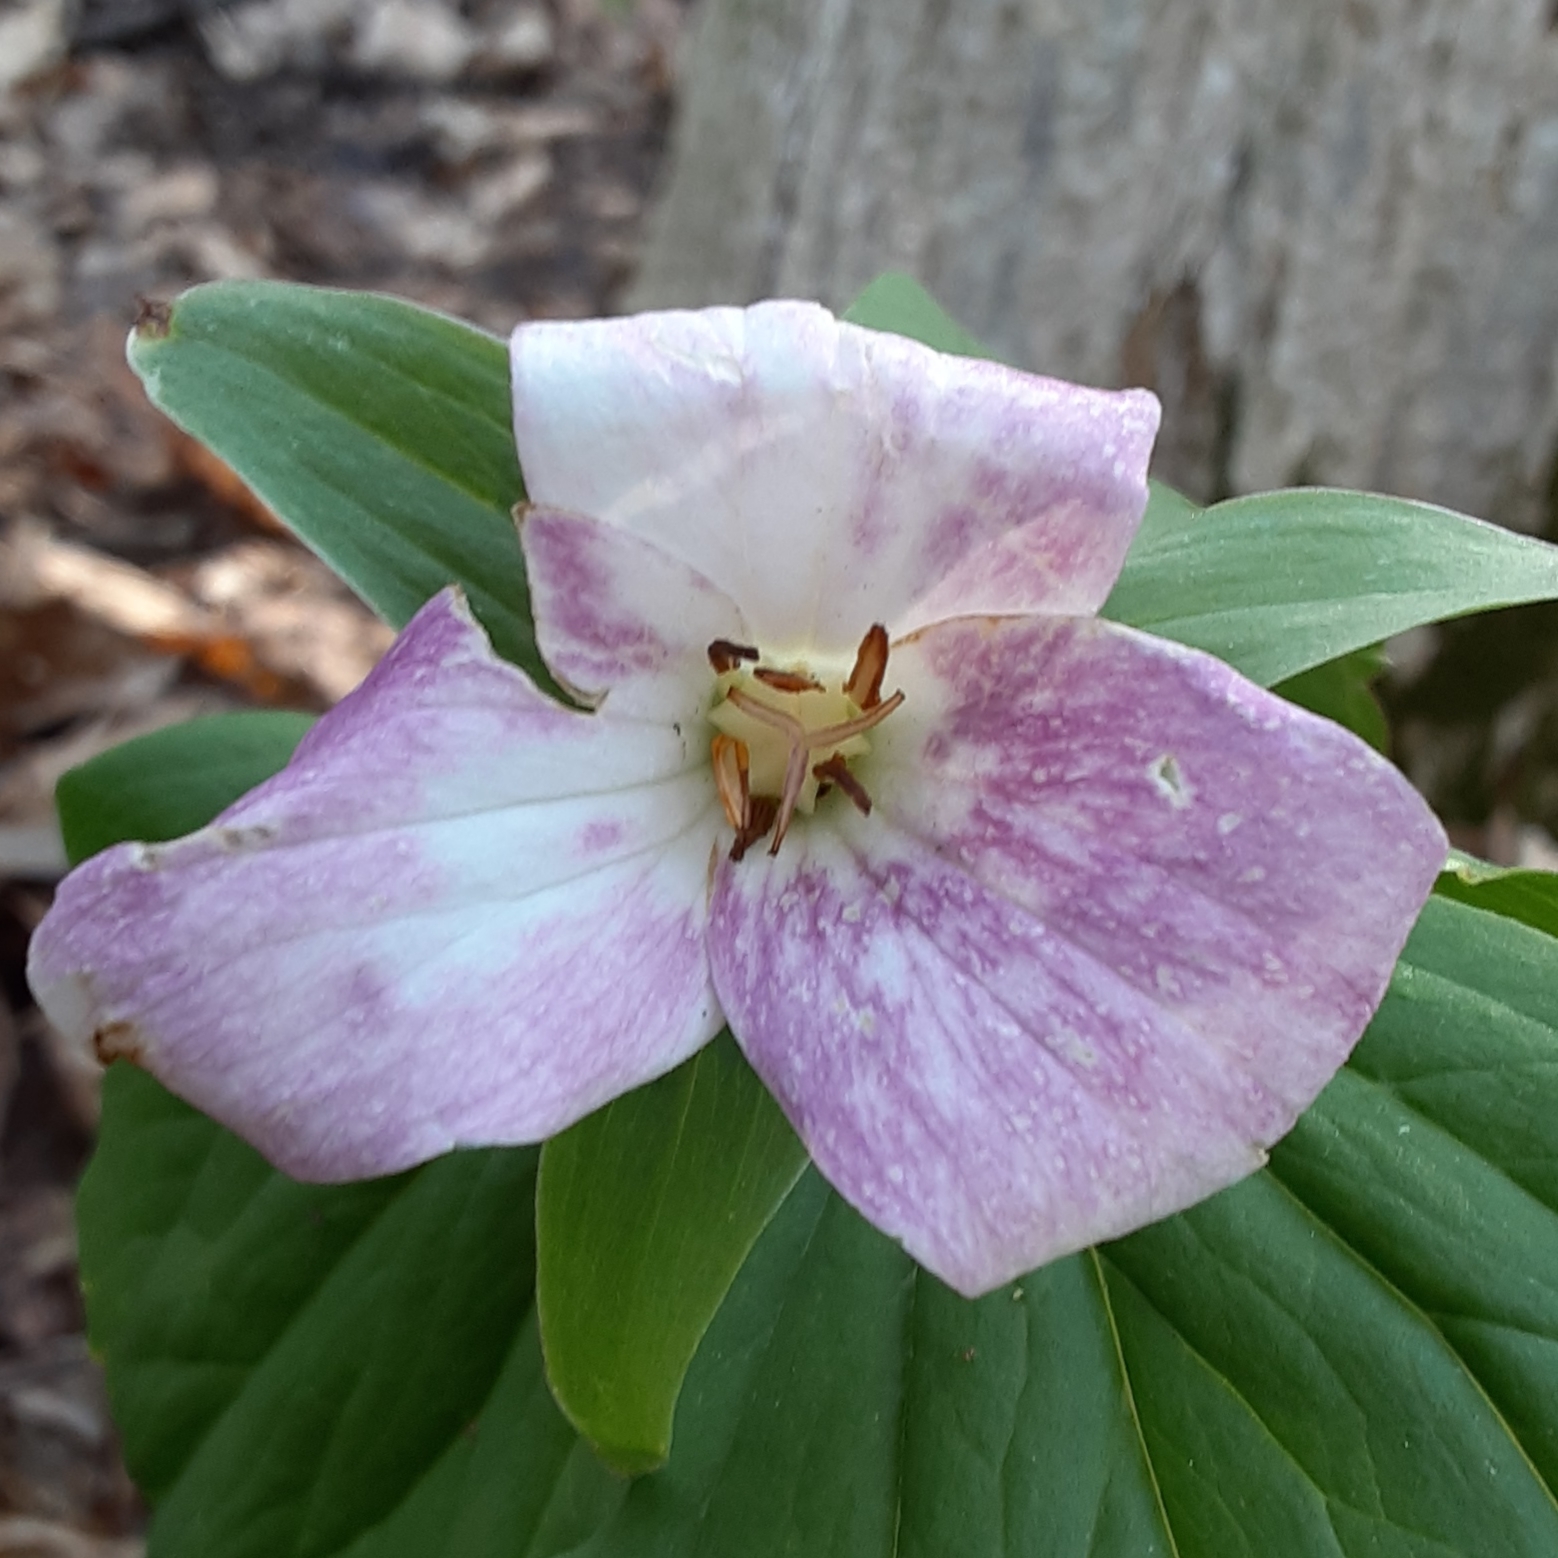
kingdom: Plantae
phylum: Tracheophyta
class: Liliopsida
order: Liliales
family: Melanthiaceae
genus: Trillium
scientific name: Trillium grandiflorum
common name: Great white trillium
